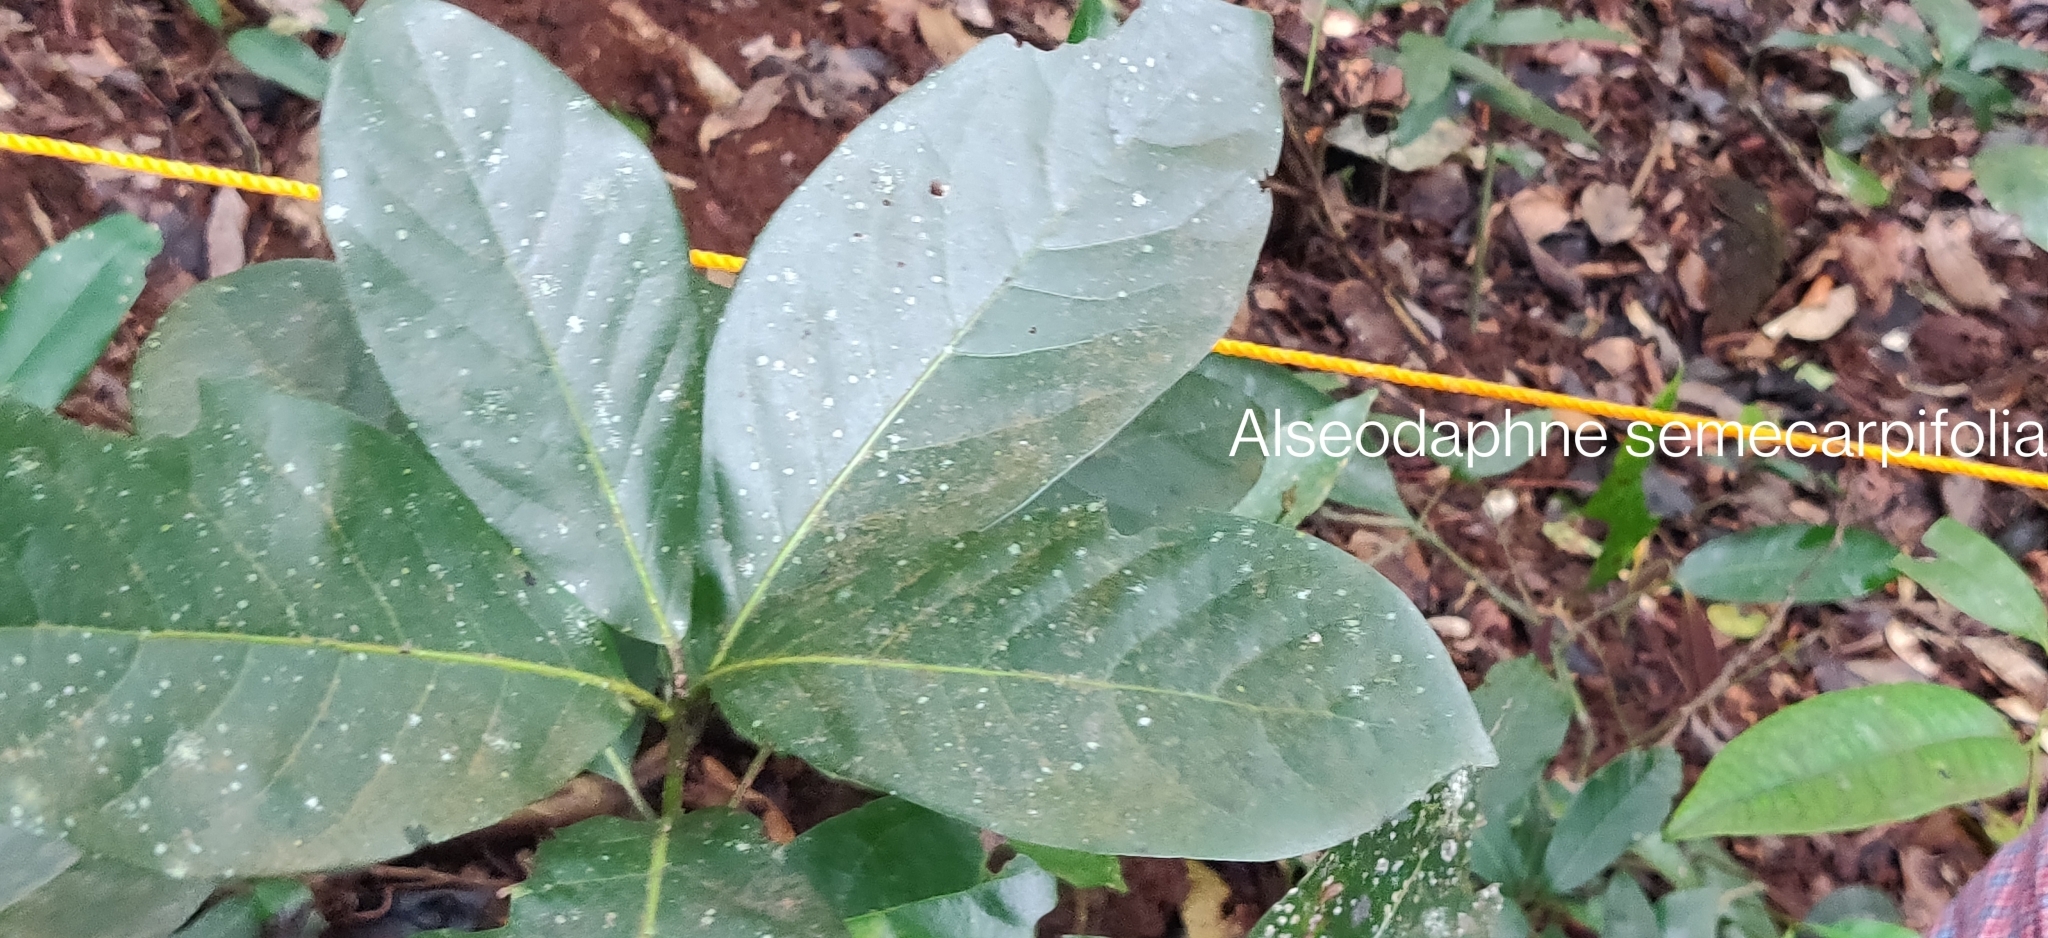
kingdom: Plantae
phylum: Tracheophyta
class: Magnoliopsida
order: Laurales
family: Lauraceae
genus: Alseodaphne
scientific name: Alseodaphne semecarpifolia
